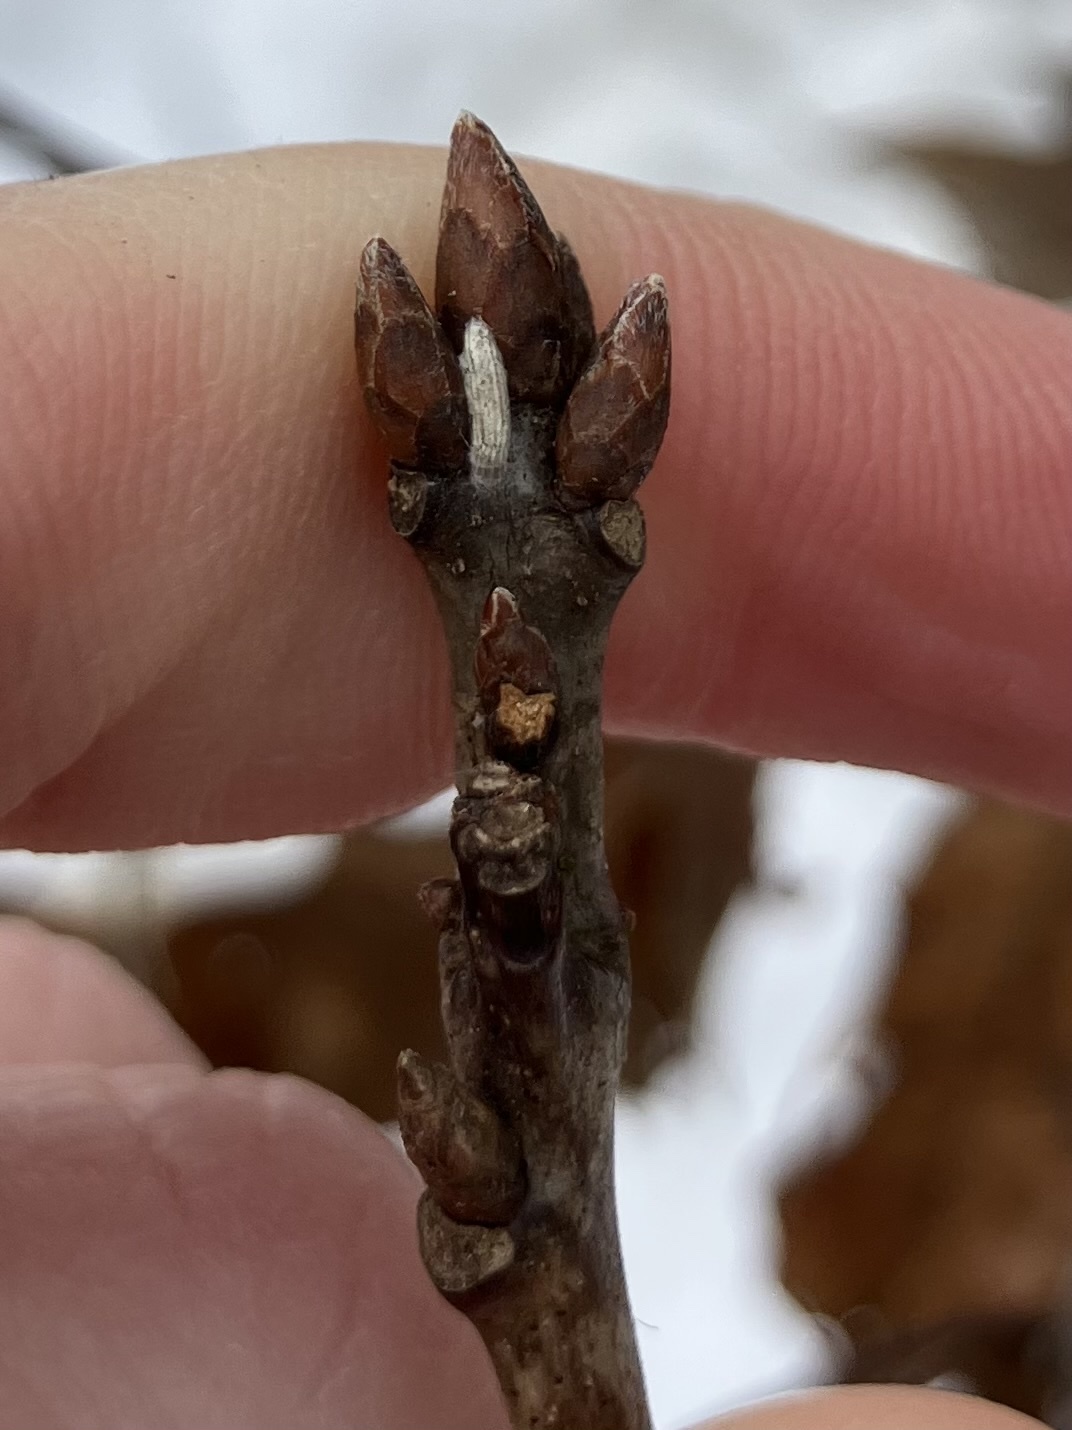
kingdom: Plantae
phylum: Tracheophyta
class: Magnoliopsida
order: Fagales
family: Fagaceae
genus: Quercus
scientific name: Quercus rubra
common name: Red oak
